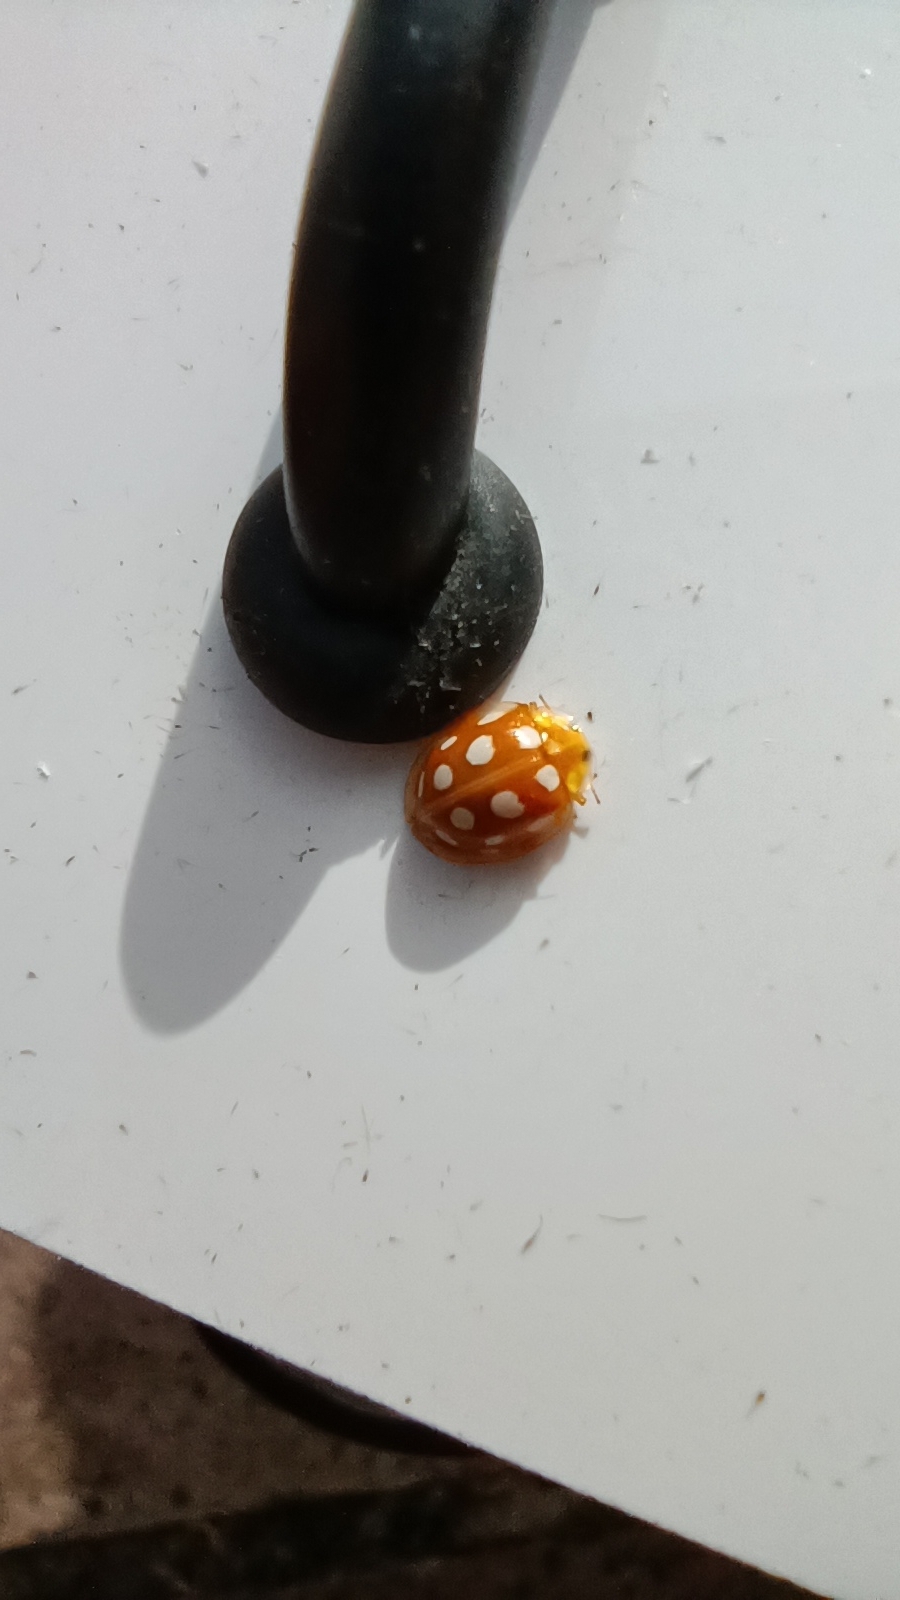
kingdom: Animalia
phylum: Arthropoda
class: Insecta
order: Coleoptera
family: Coccinellidae
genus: Halyzia
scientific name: Halyzia sedecimguttata
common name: Orange ladybird
